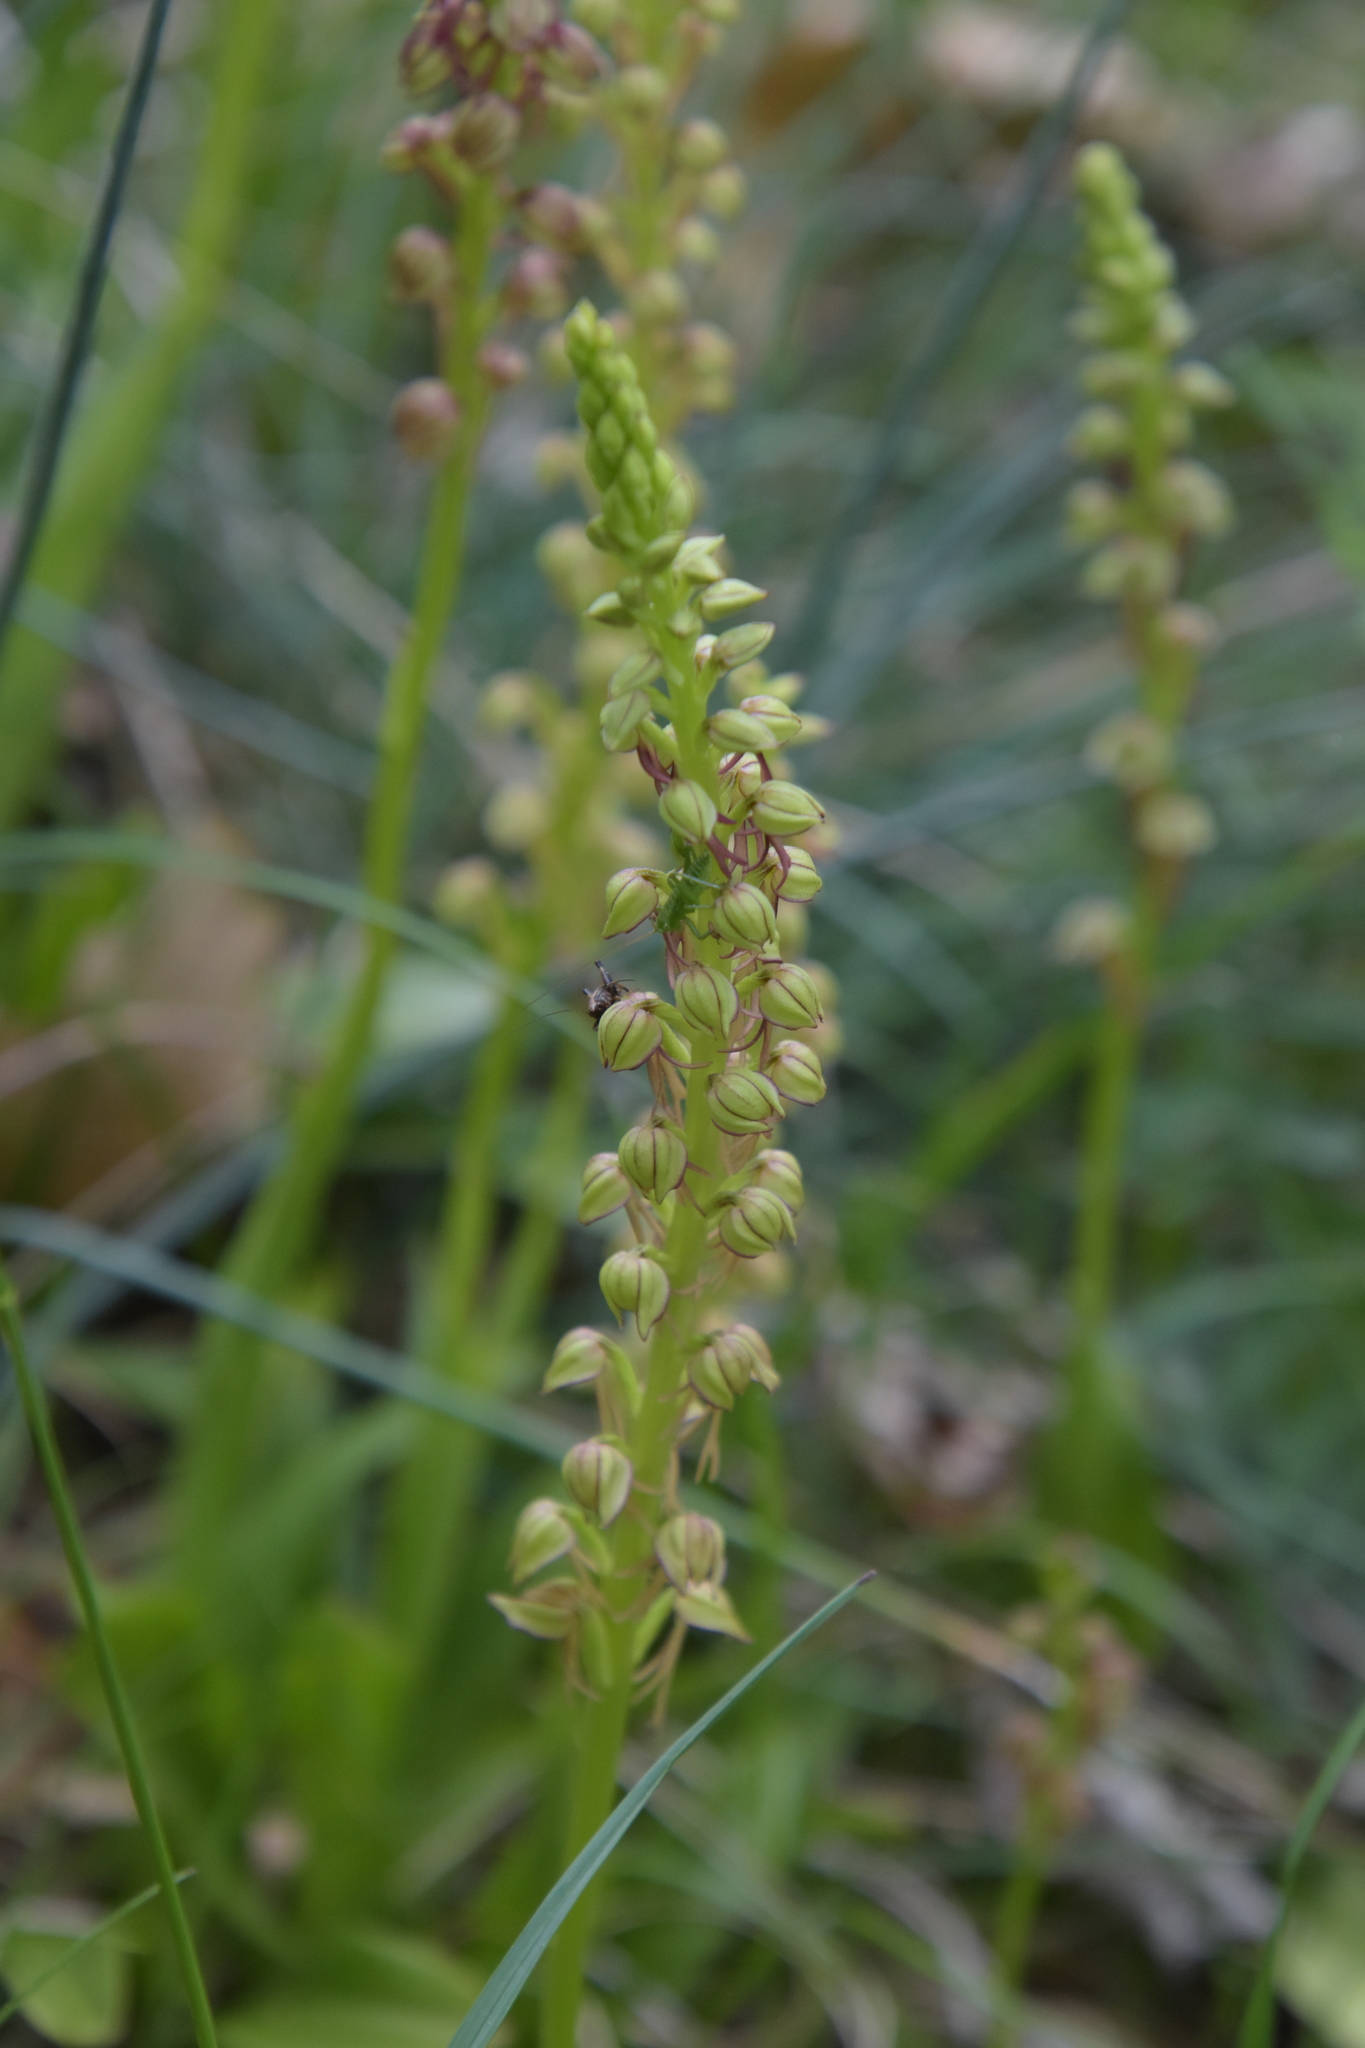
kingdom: Plantae
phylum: Tracheophyta
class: Liliopsida
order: Asparagales
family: Orchidaceae
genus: Orchis
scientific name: Orchis anthropophora
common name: Man orchid
